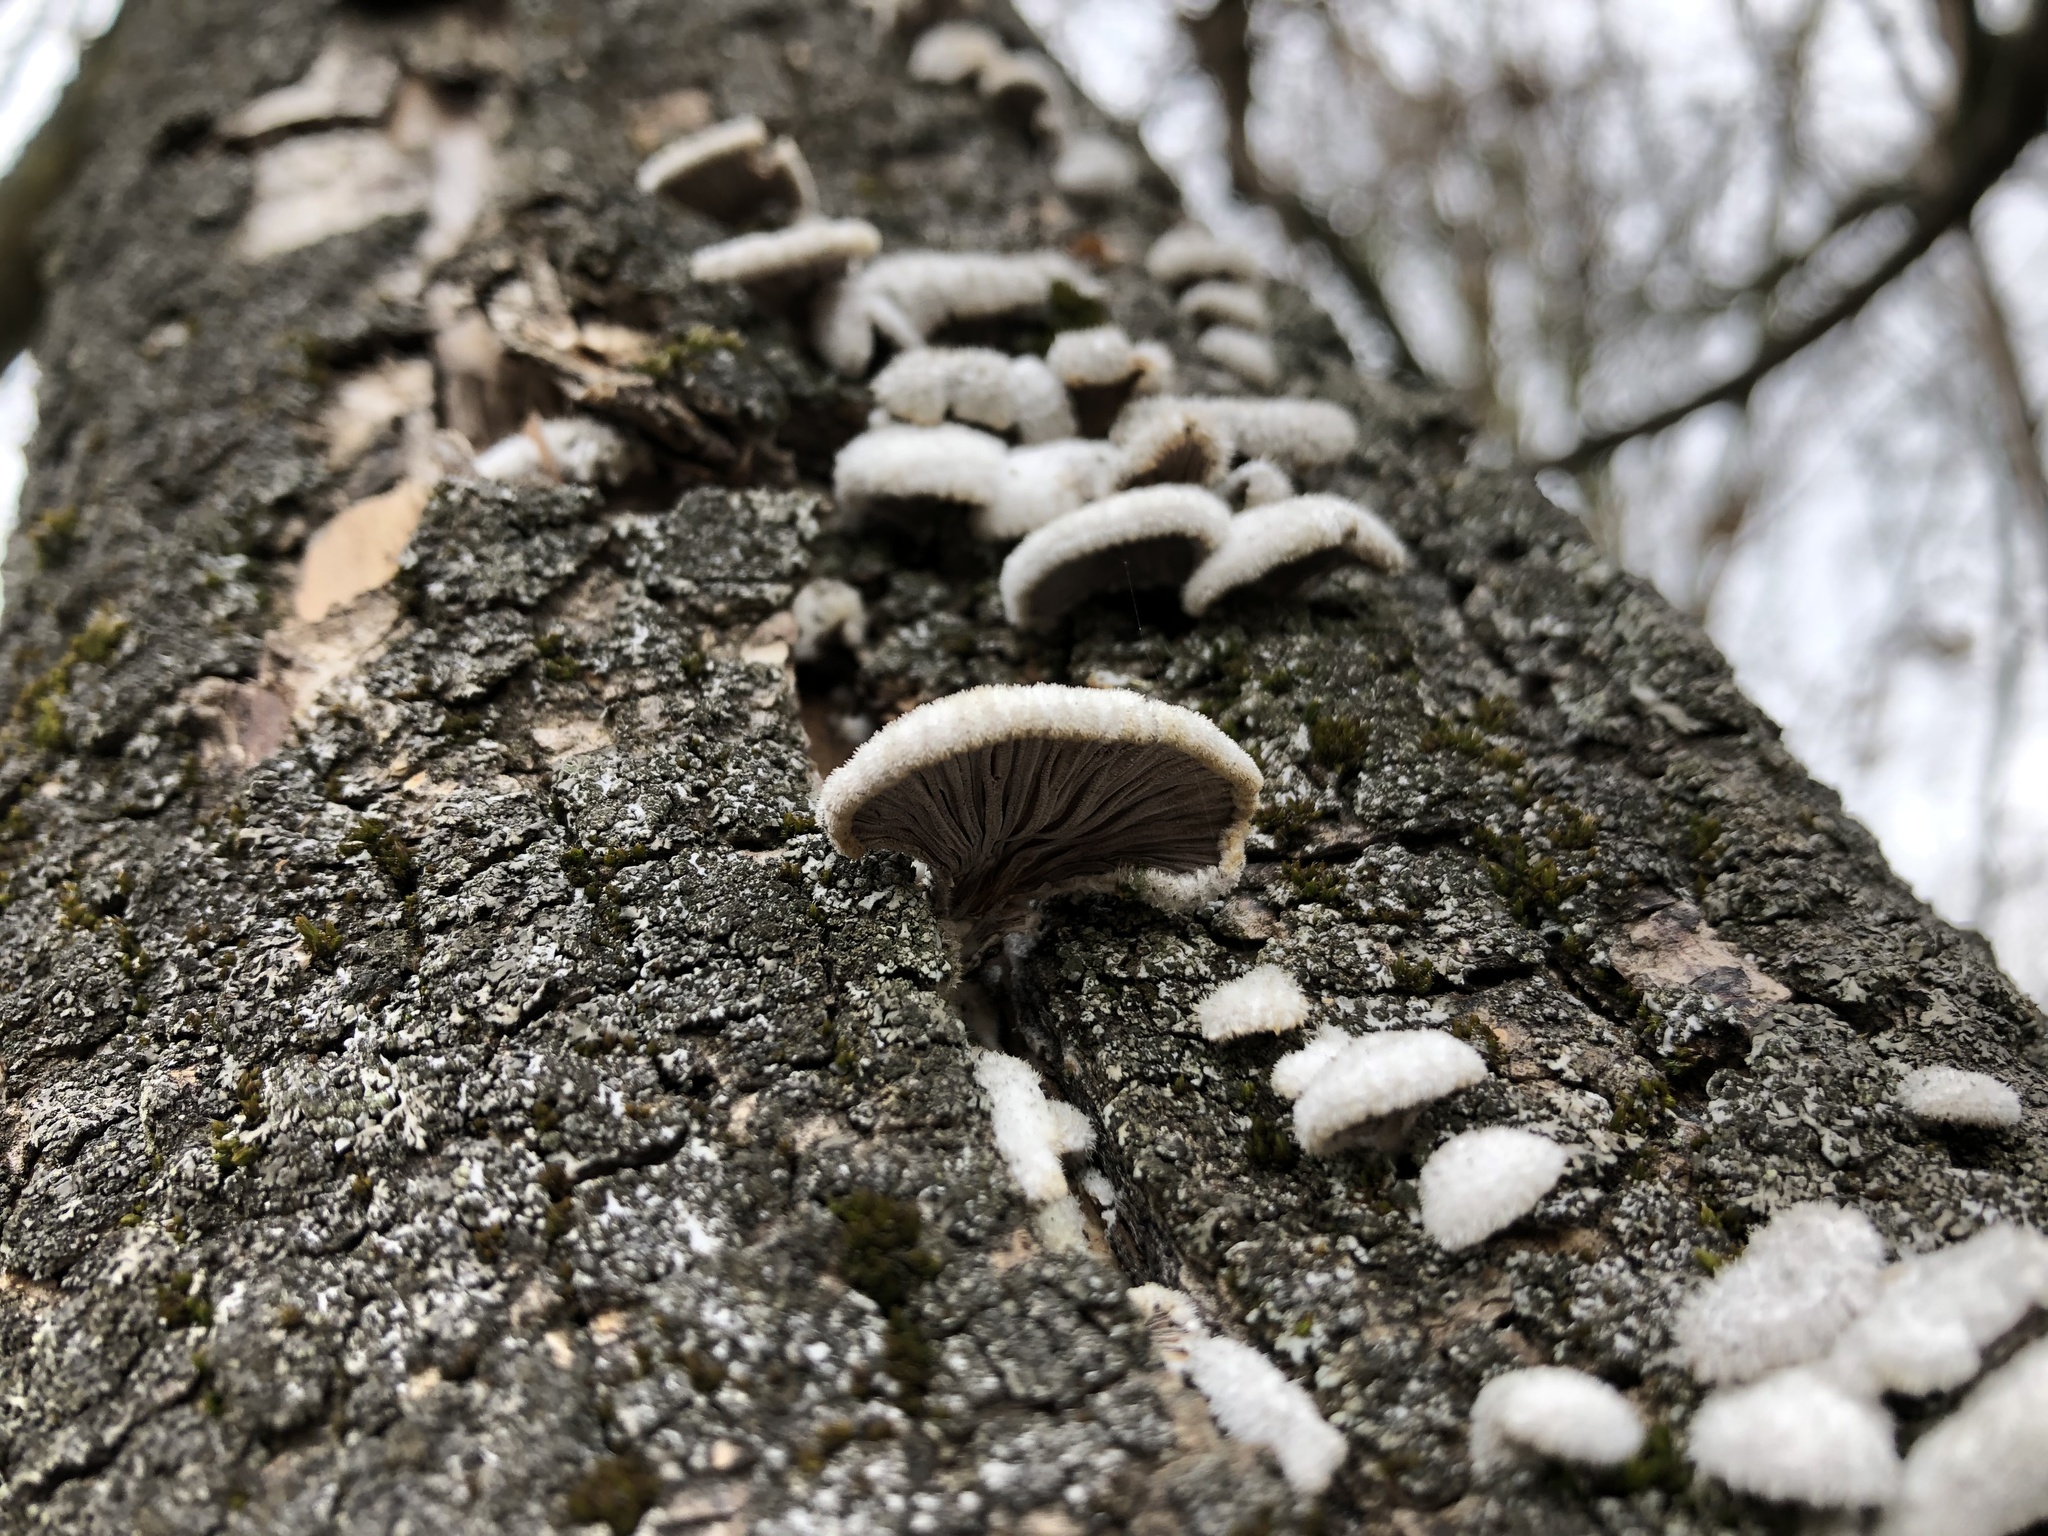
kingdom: Fungi
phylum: Basidiomycota
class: Agaricomycetes
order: Agaricales
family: Schizophyllaceae
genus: Schizophyllum
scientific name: Schizophyllum commune
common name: Common porecrust
